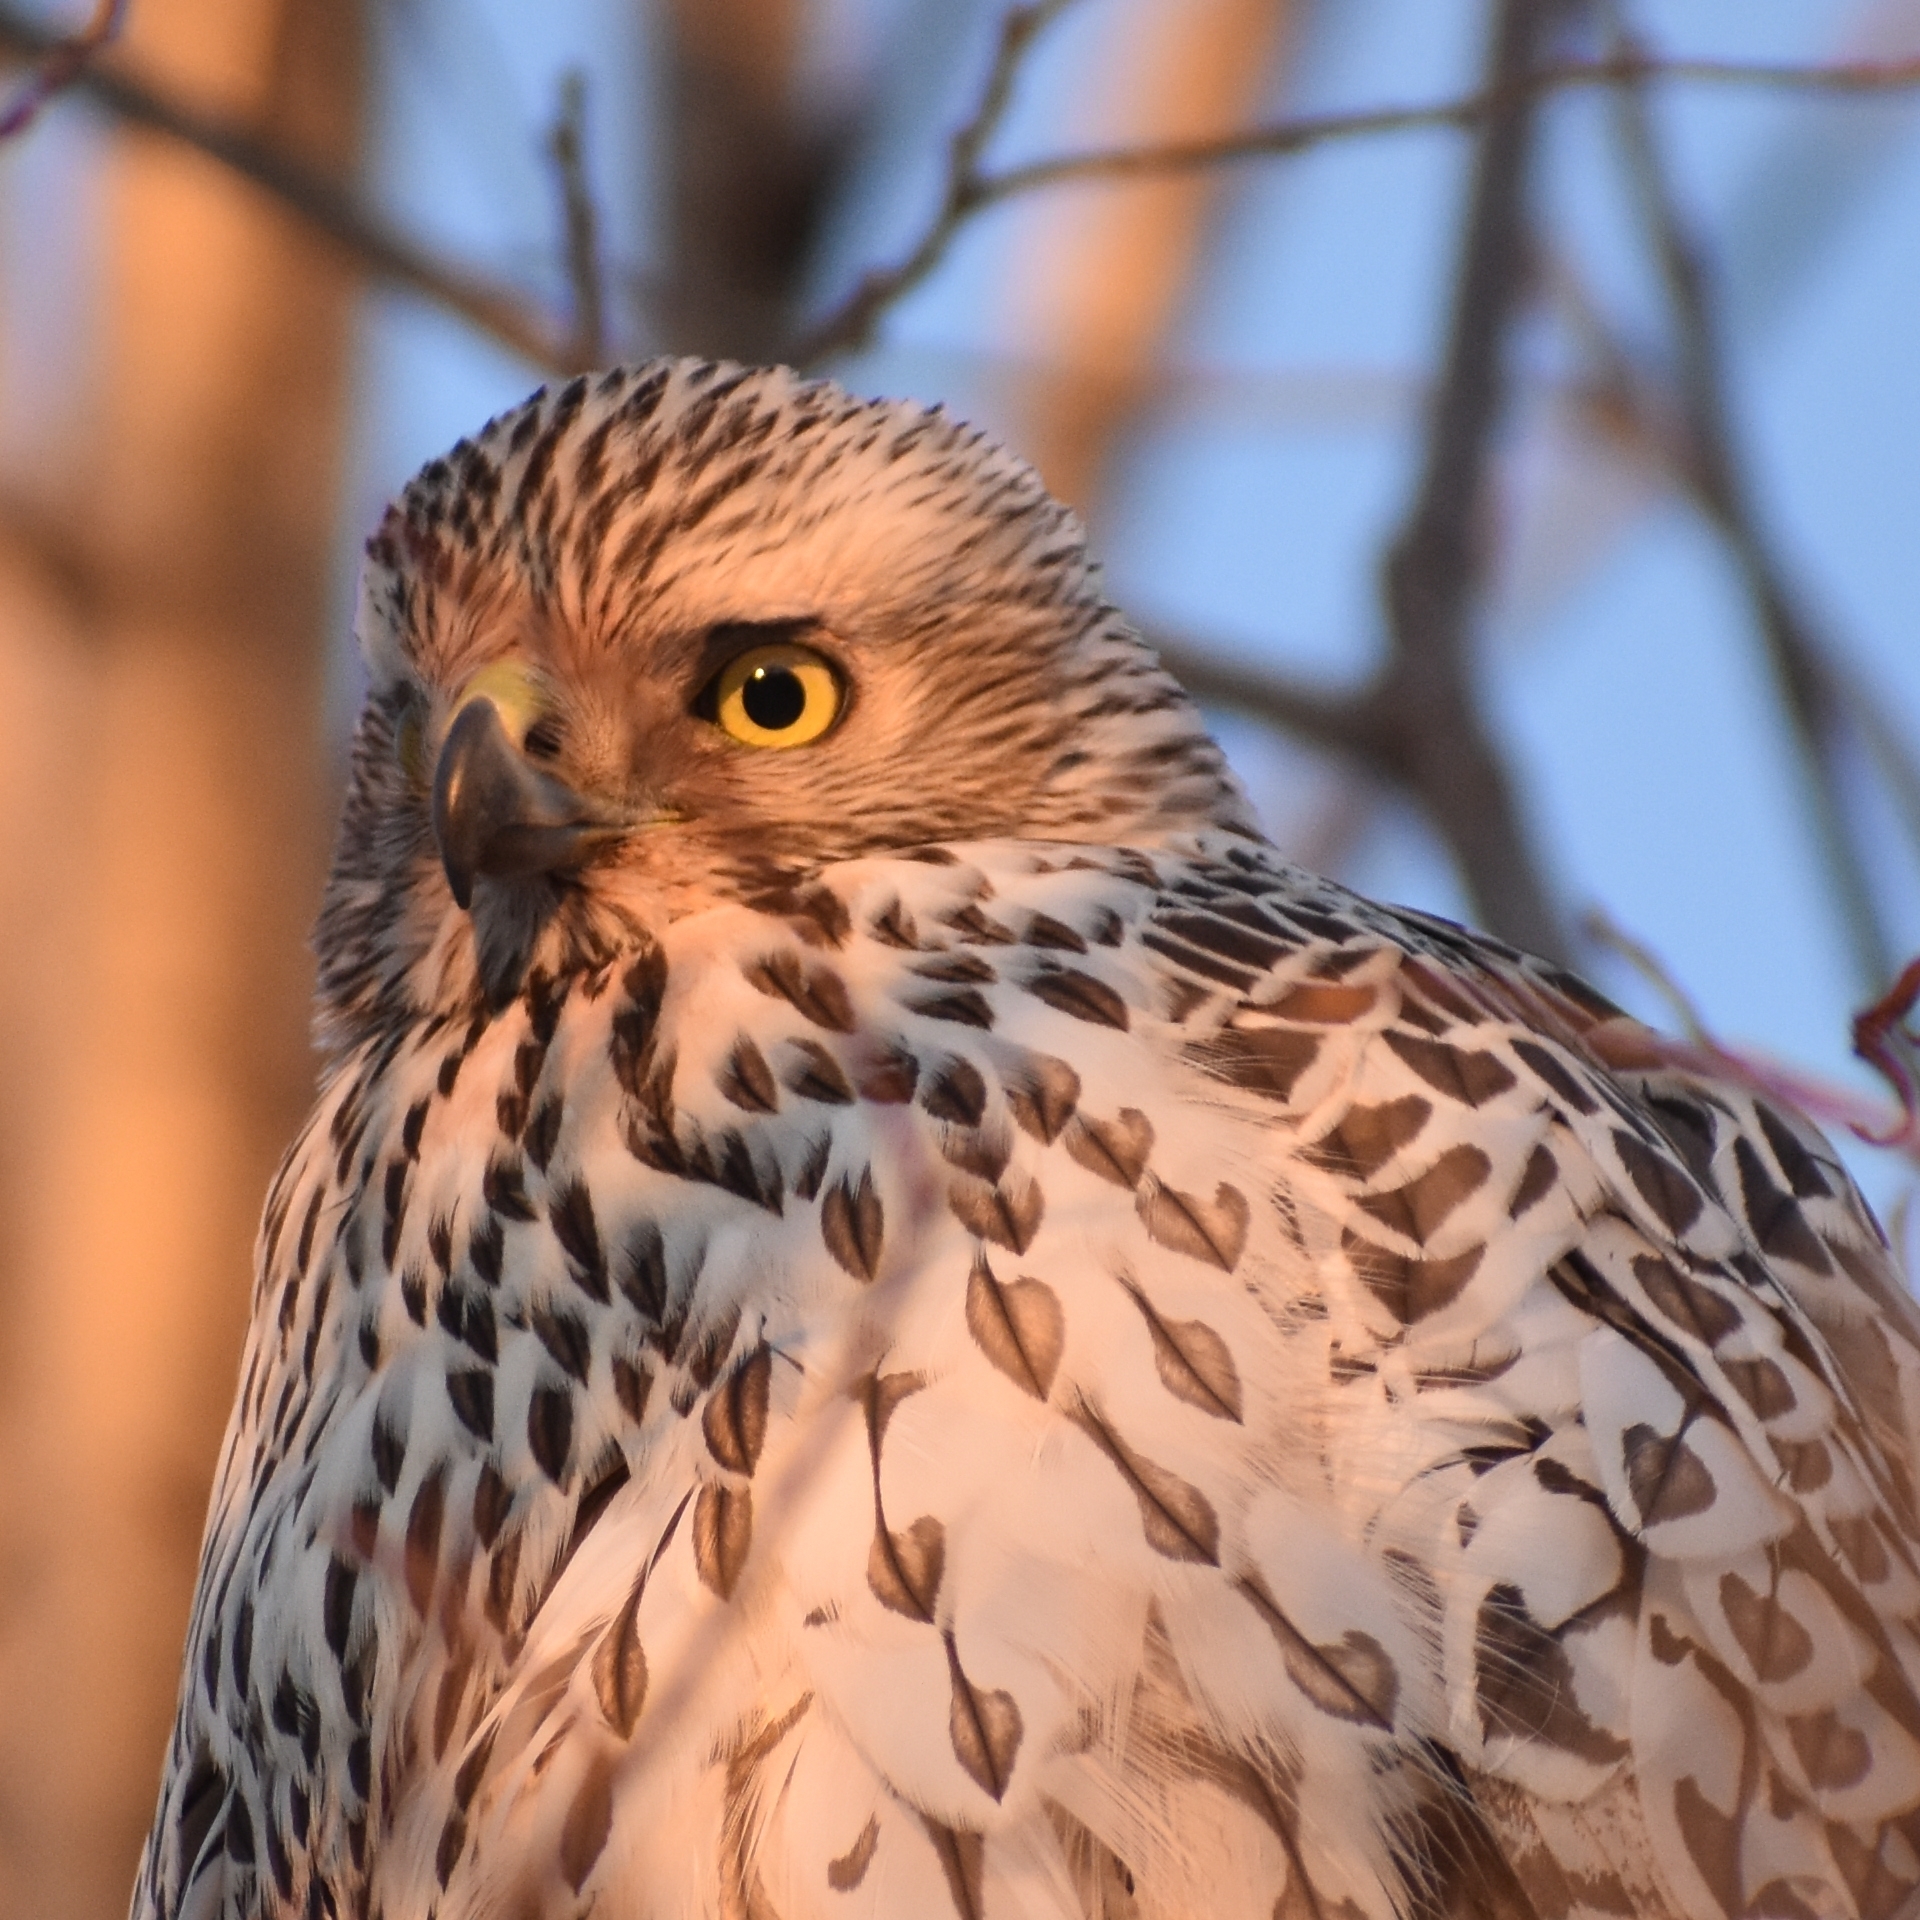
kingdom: Animalia
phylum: Chordata
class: Aves
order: Accipitriformes
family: Accipitridae
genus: Accipiter
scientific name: Accipiter gentilis
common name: Northern goshawk
